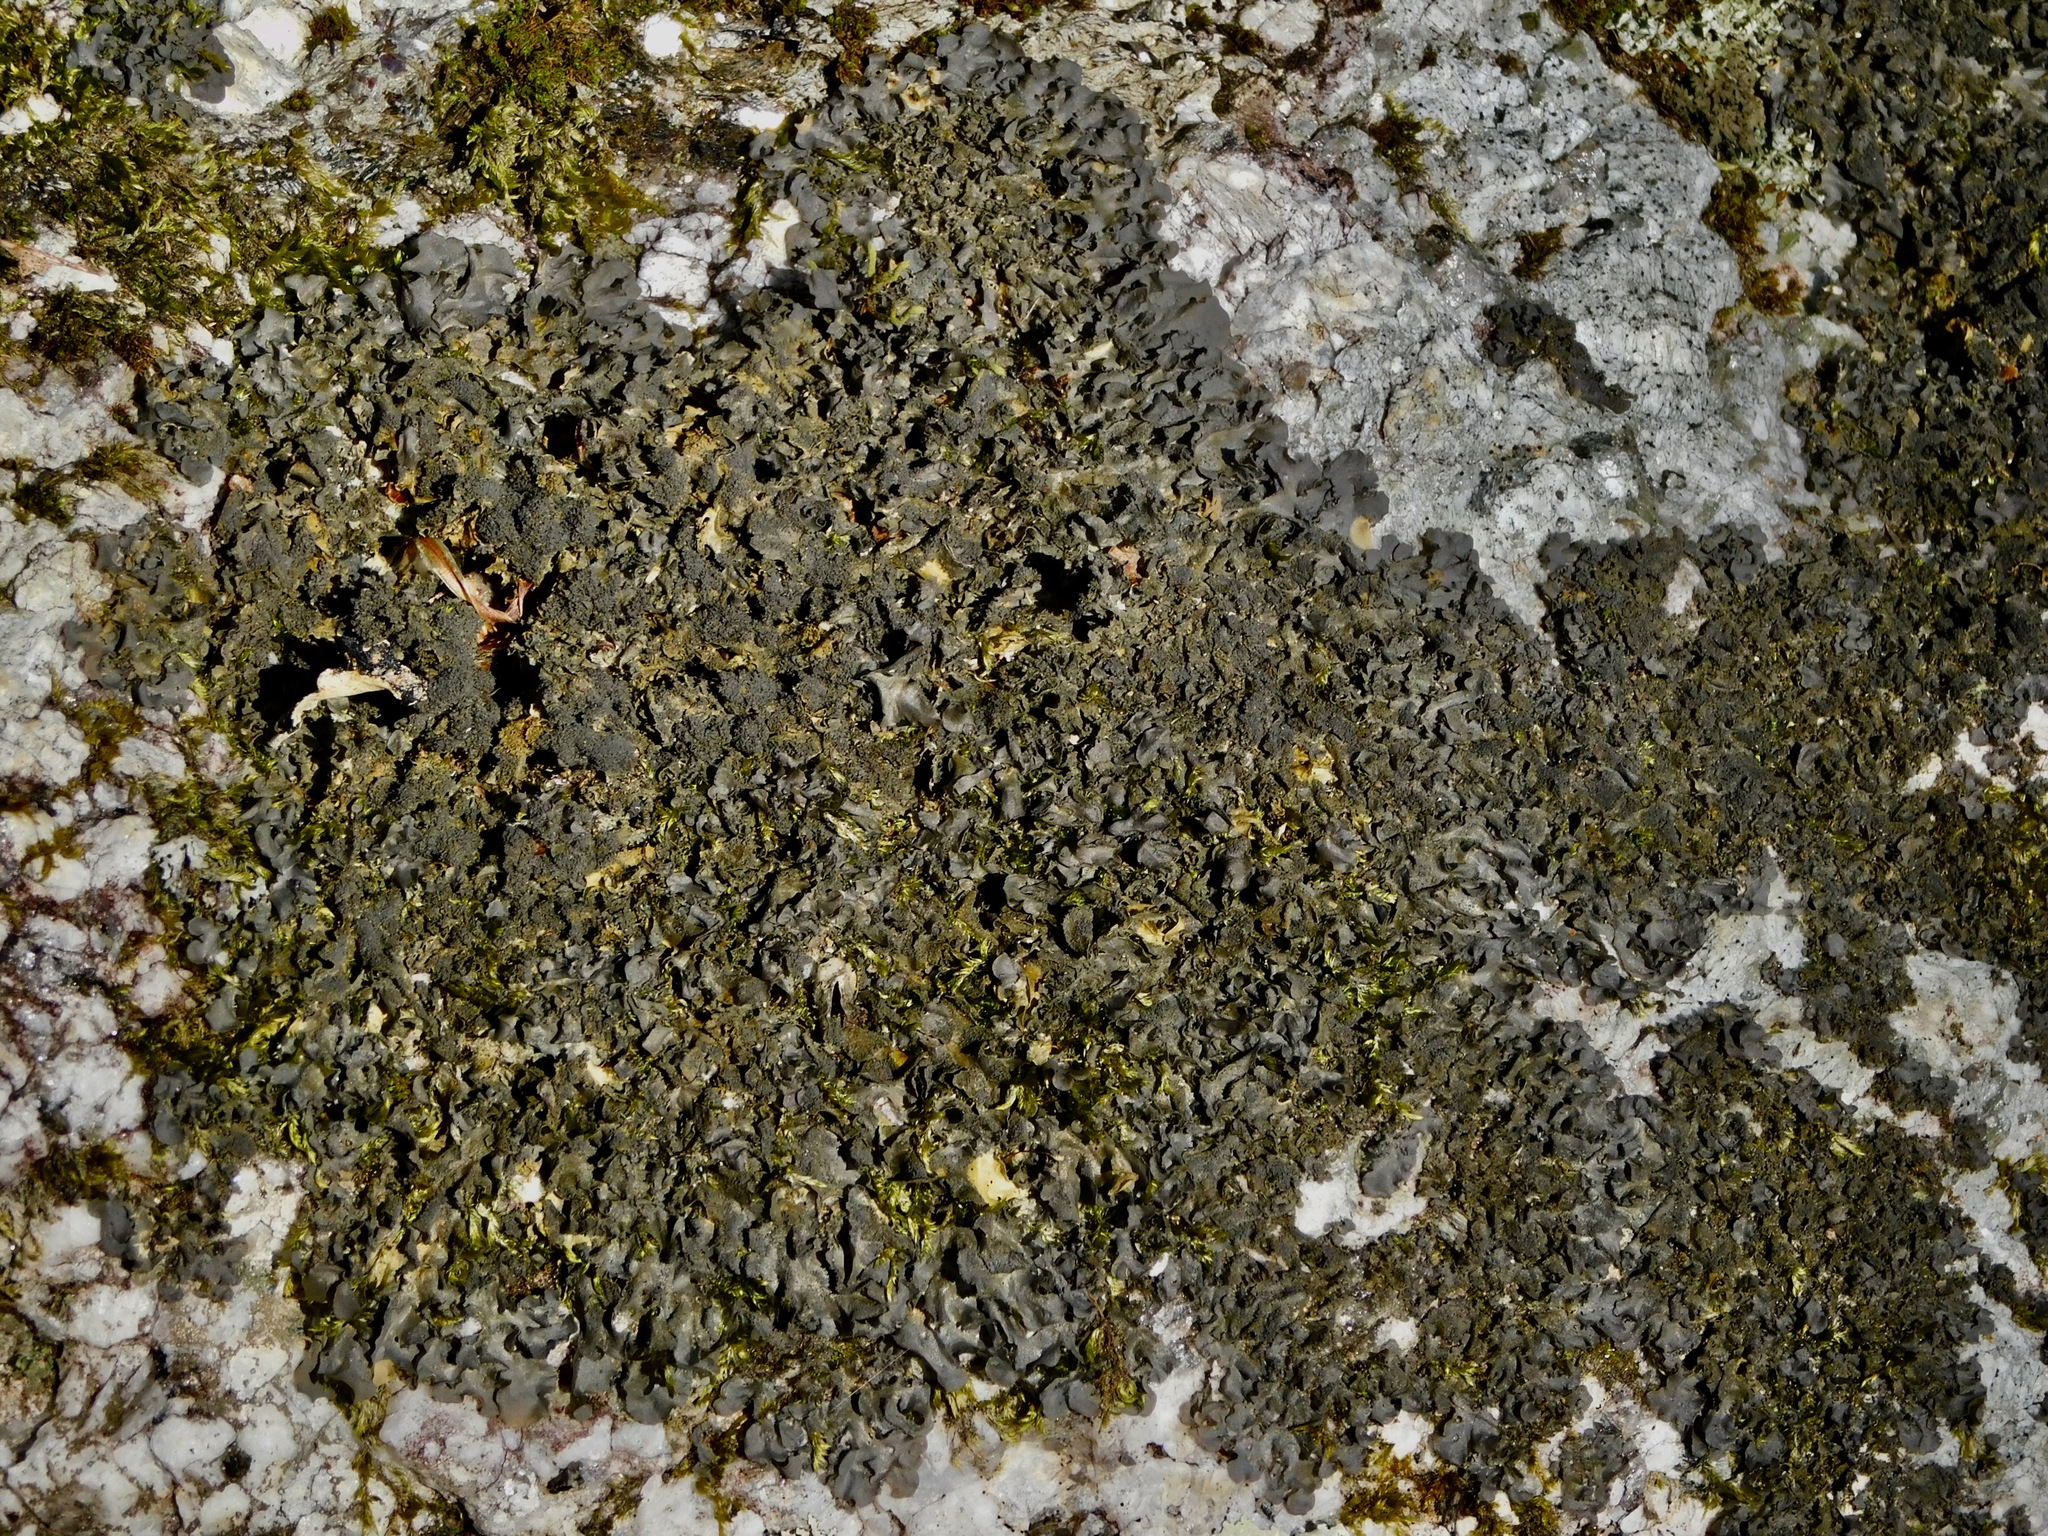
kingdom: Fungi
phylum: Ascomycota
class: Lecanoromycetes
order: Peltigerales
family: Collemataceae
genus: Leptogium
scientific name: Leptogium cyanescens
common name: Blue jellyskin
